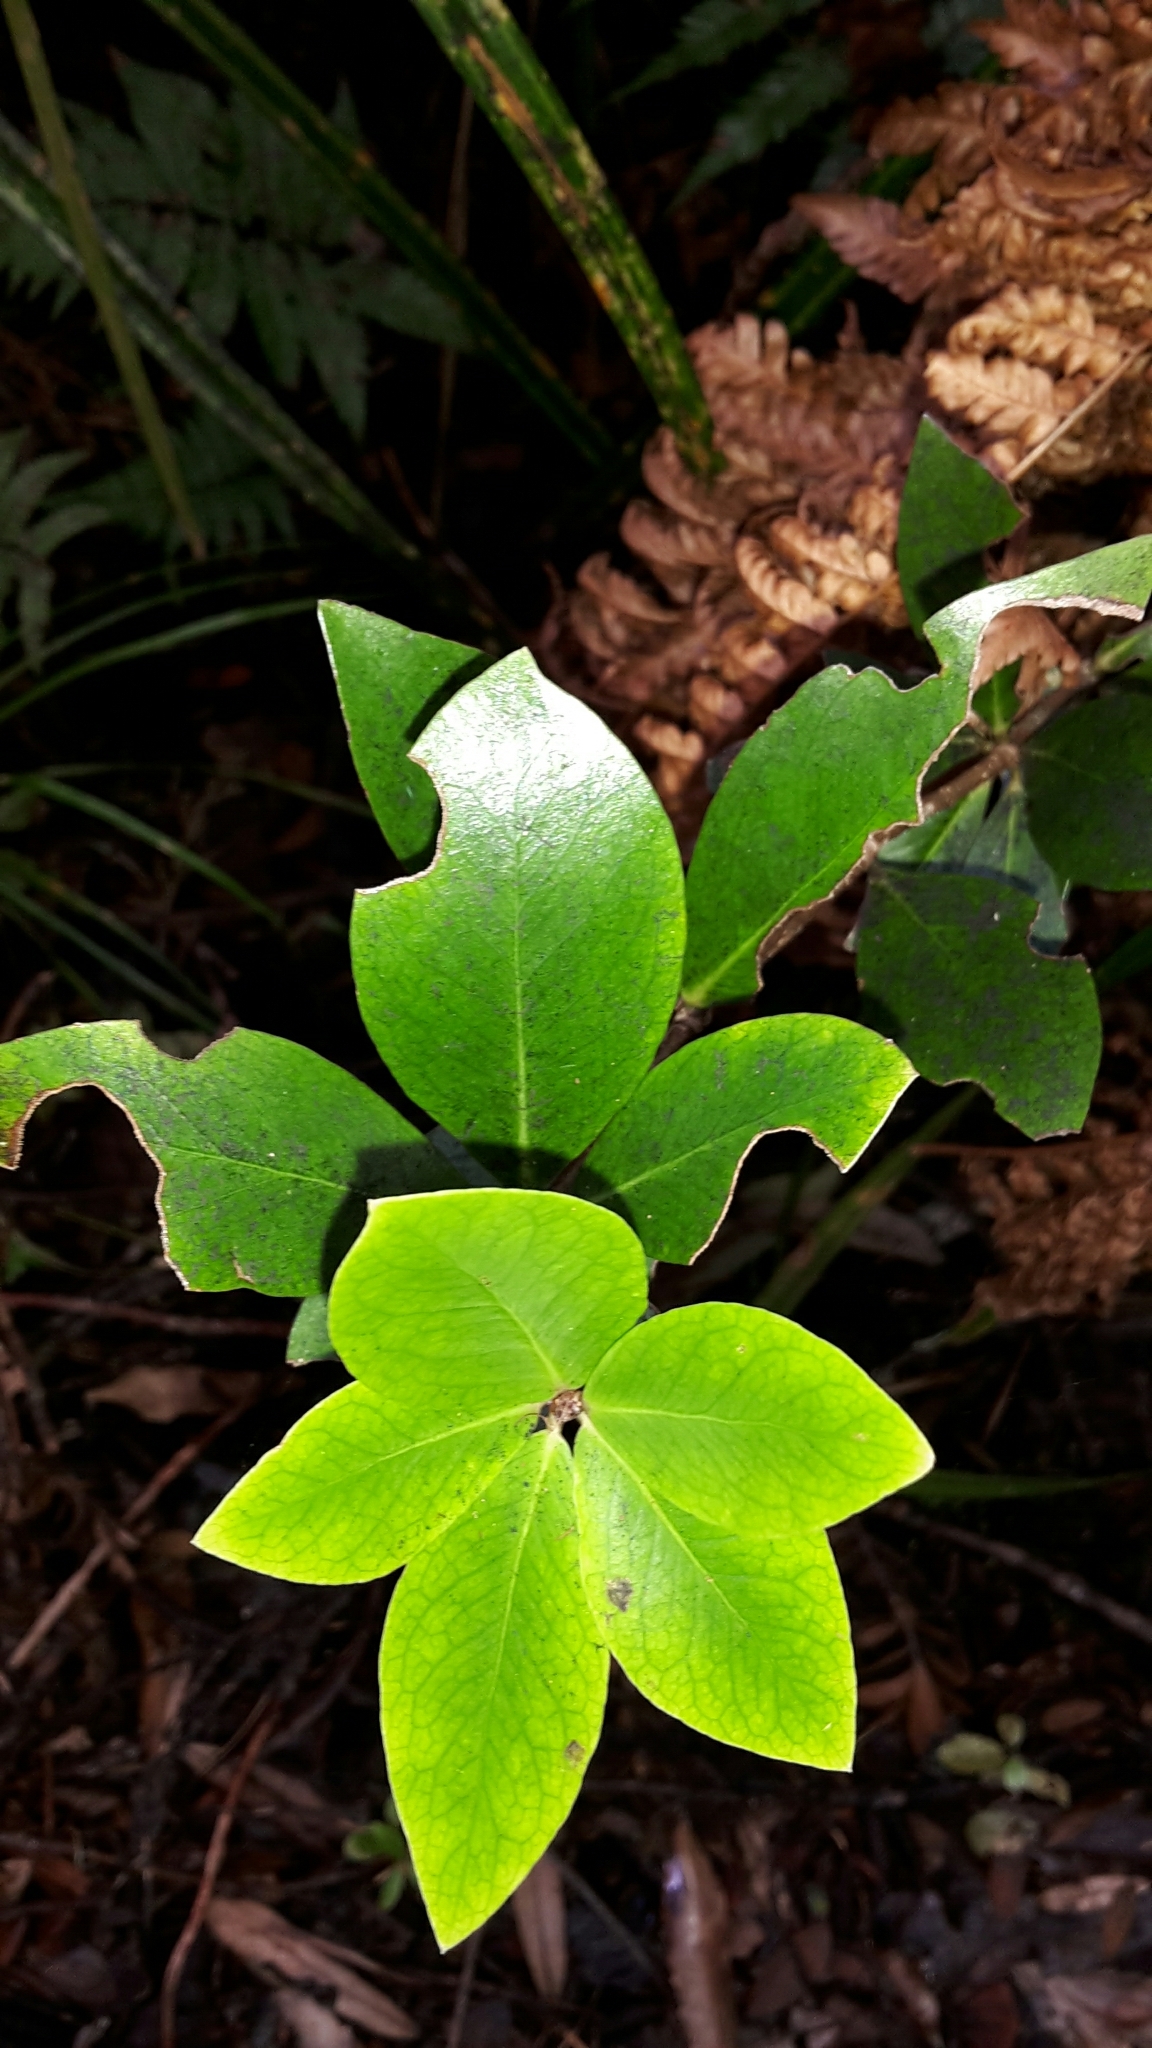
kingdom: Plantae
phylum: Tracheophyta
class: Magnoliopsida
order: Apiales
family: Pittosporaceae
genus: Pittosporum
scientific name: Pittosporum cornifolium
